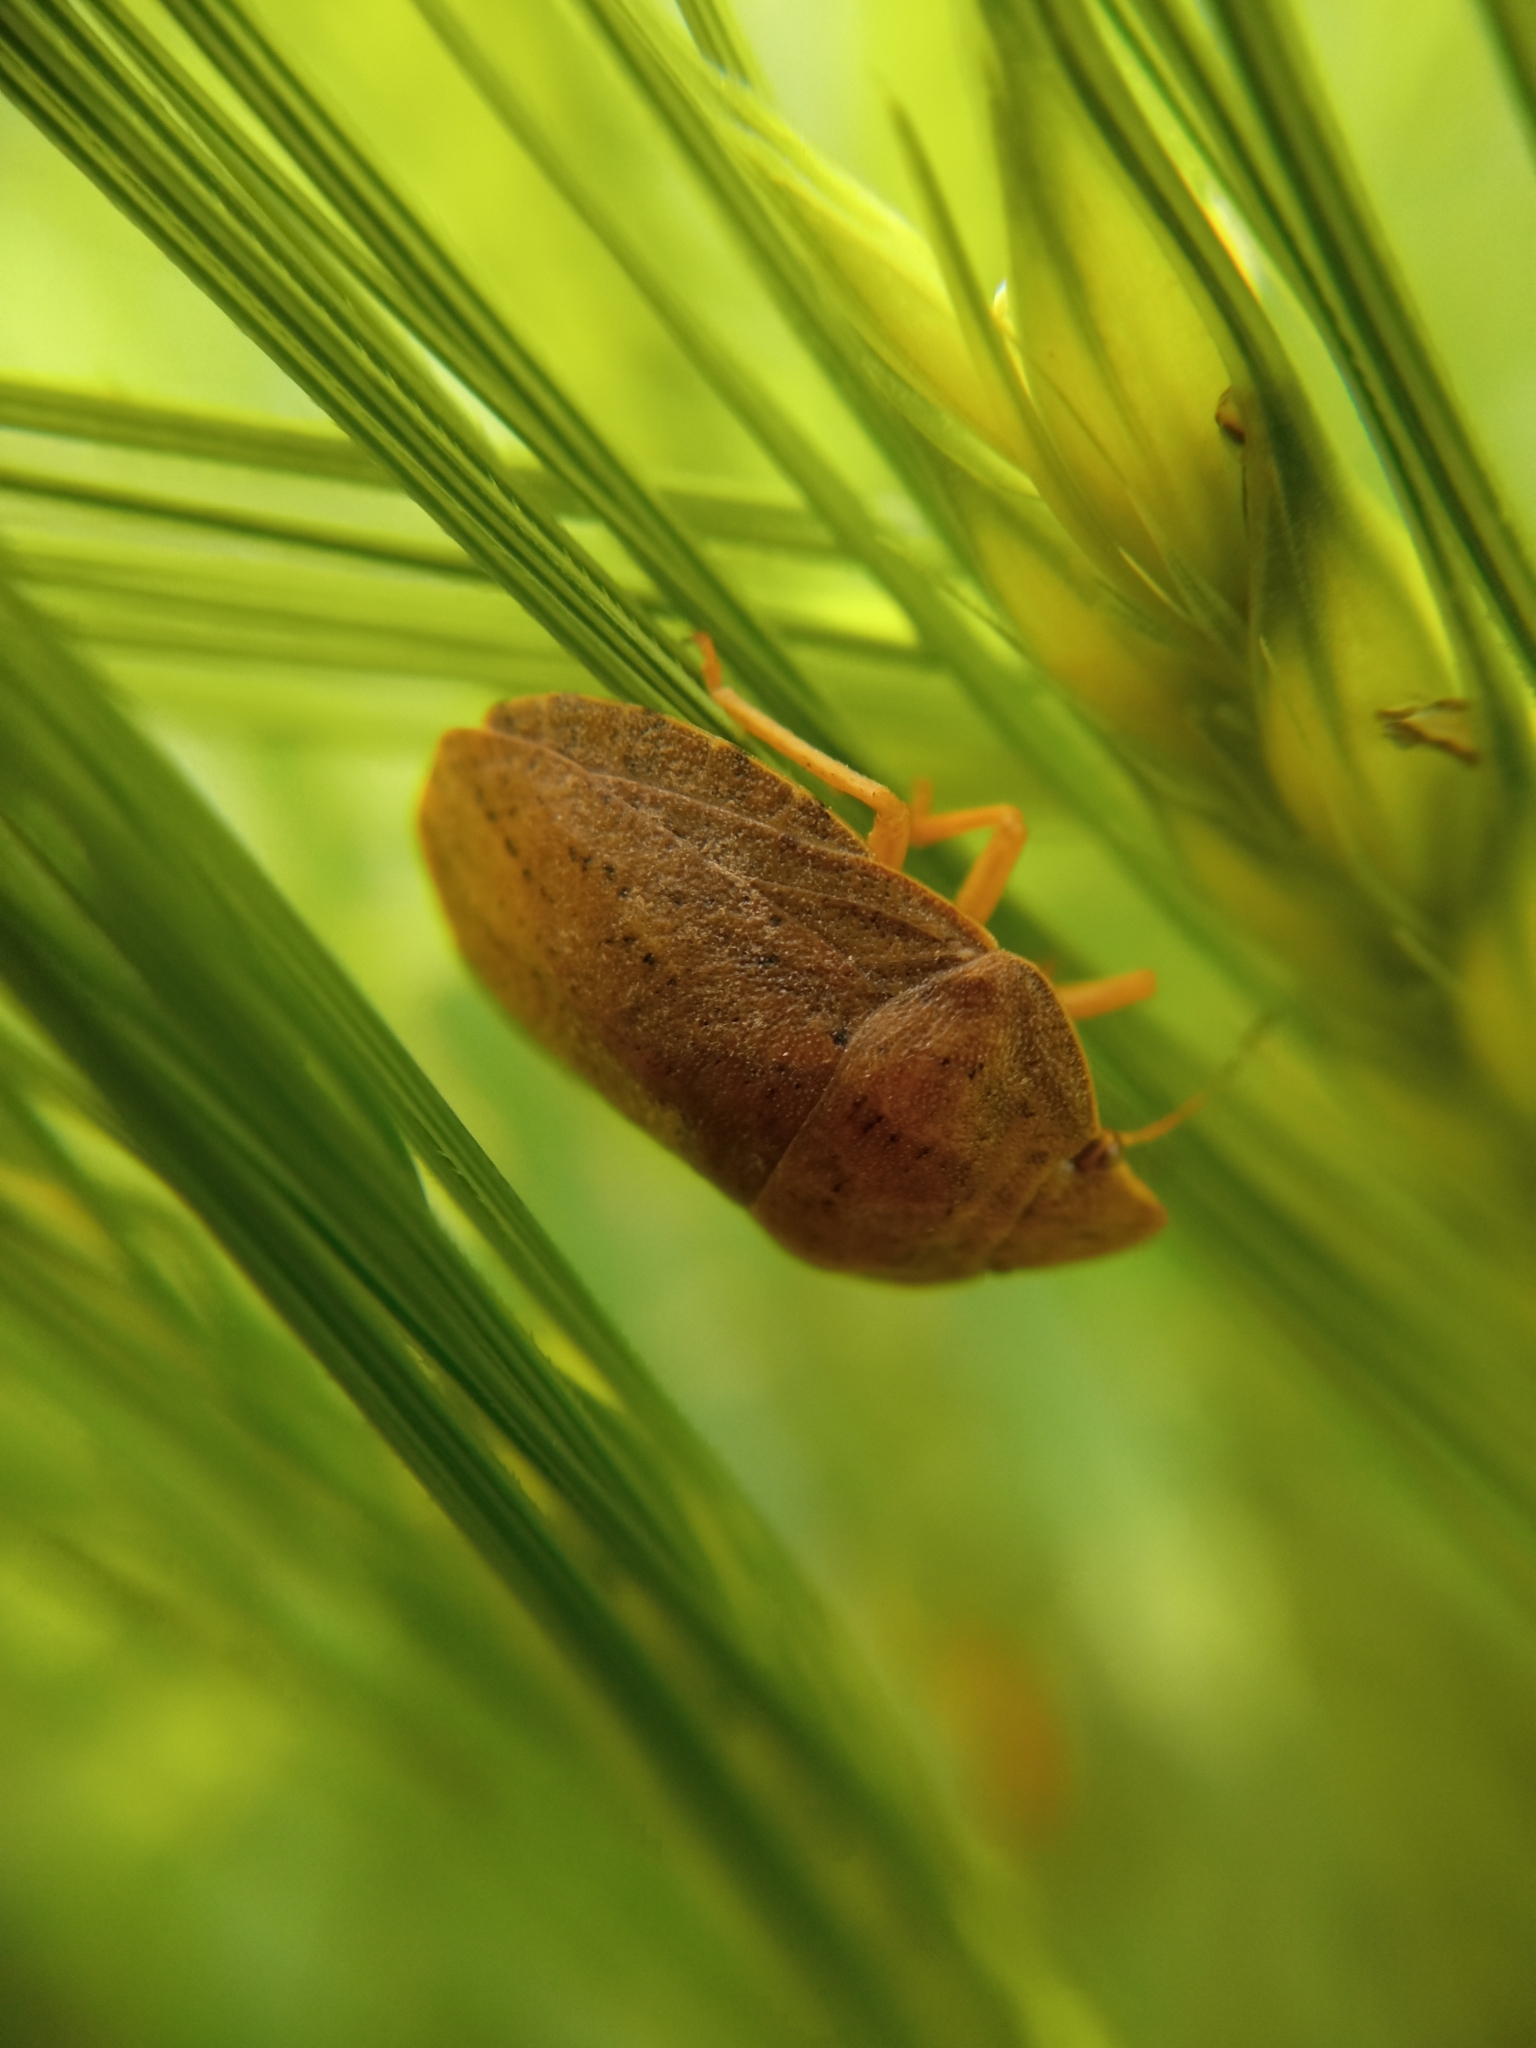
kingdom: Animalia
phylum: Arthropoda
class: Insecta
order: Hemiptera
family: Scutelleridae
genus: Eurygaster
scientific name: Eurygaster austriaca
